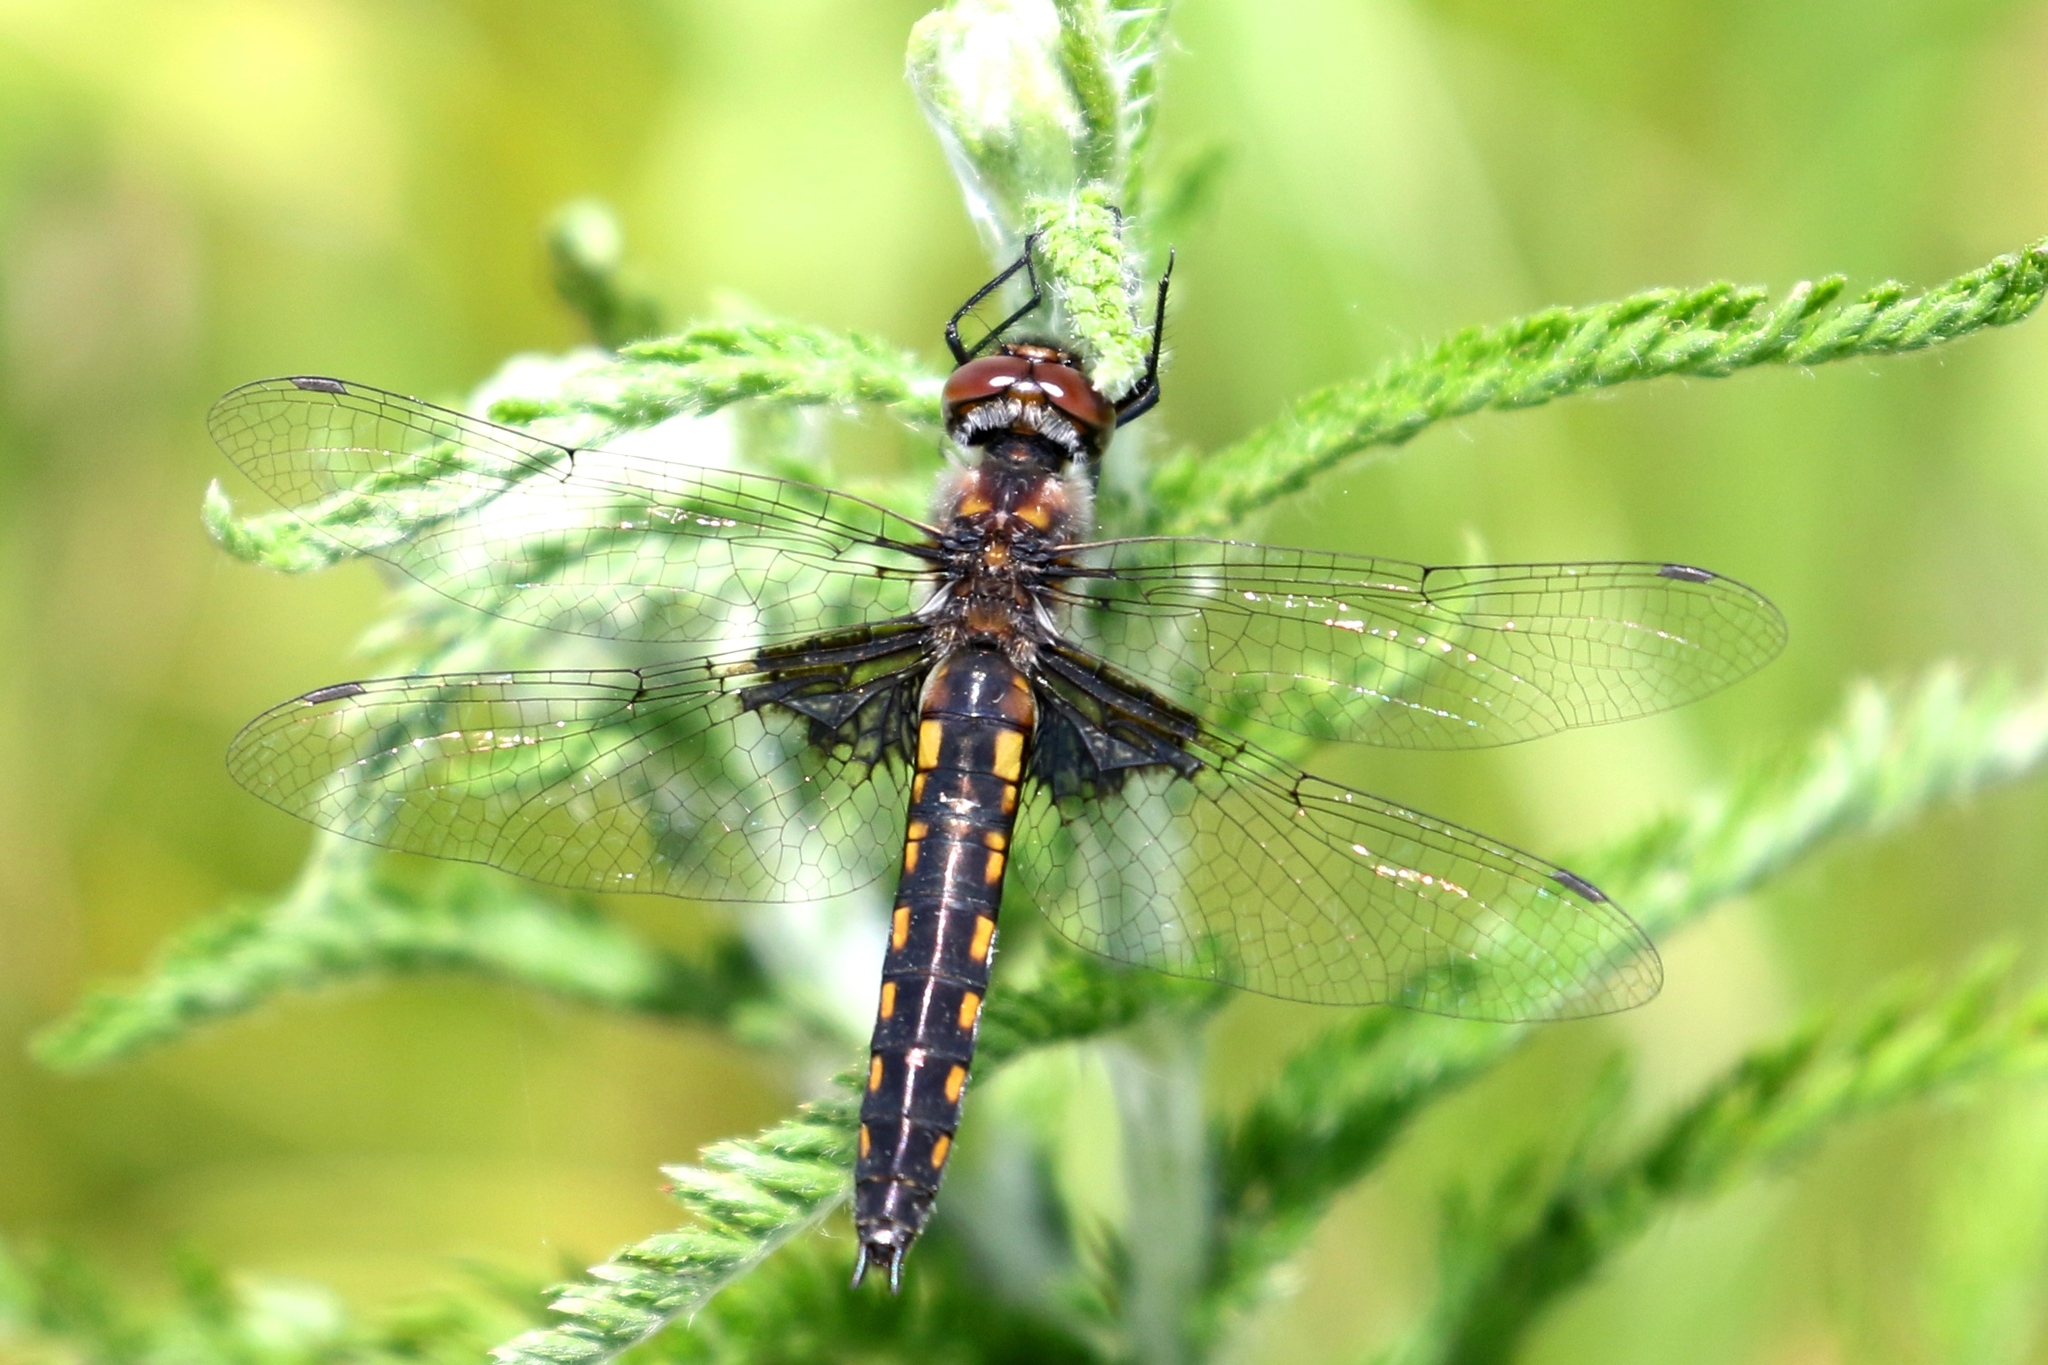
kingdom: Animalia
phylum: Arthropoda
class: Insecta
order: Odonata
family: Corduliidae
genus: Epitheca
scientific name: Epitheca cynosura
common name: Common baskettail
